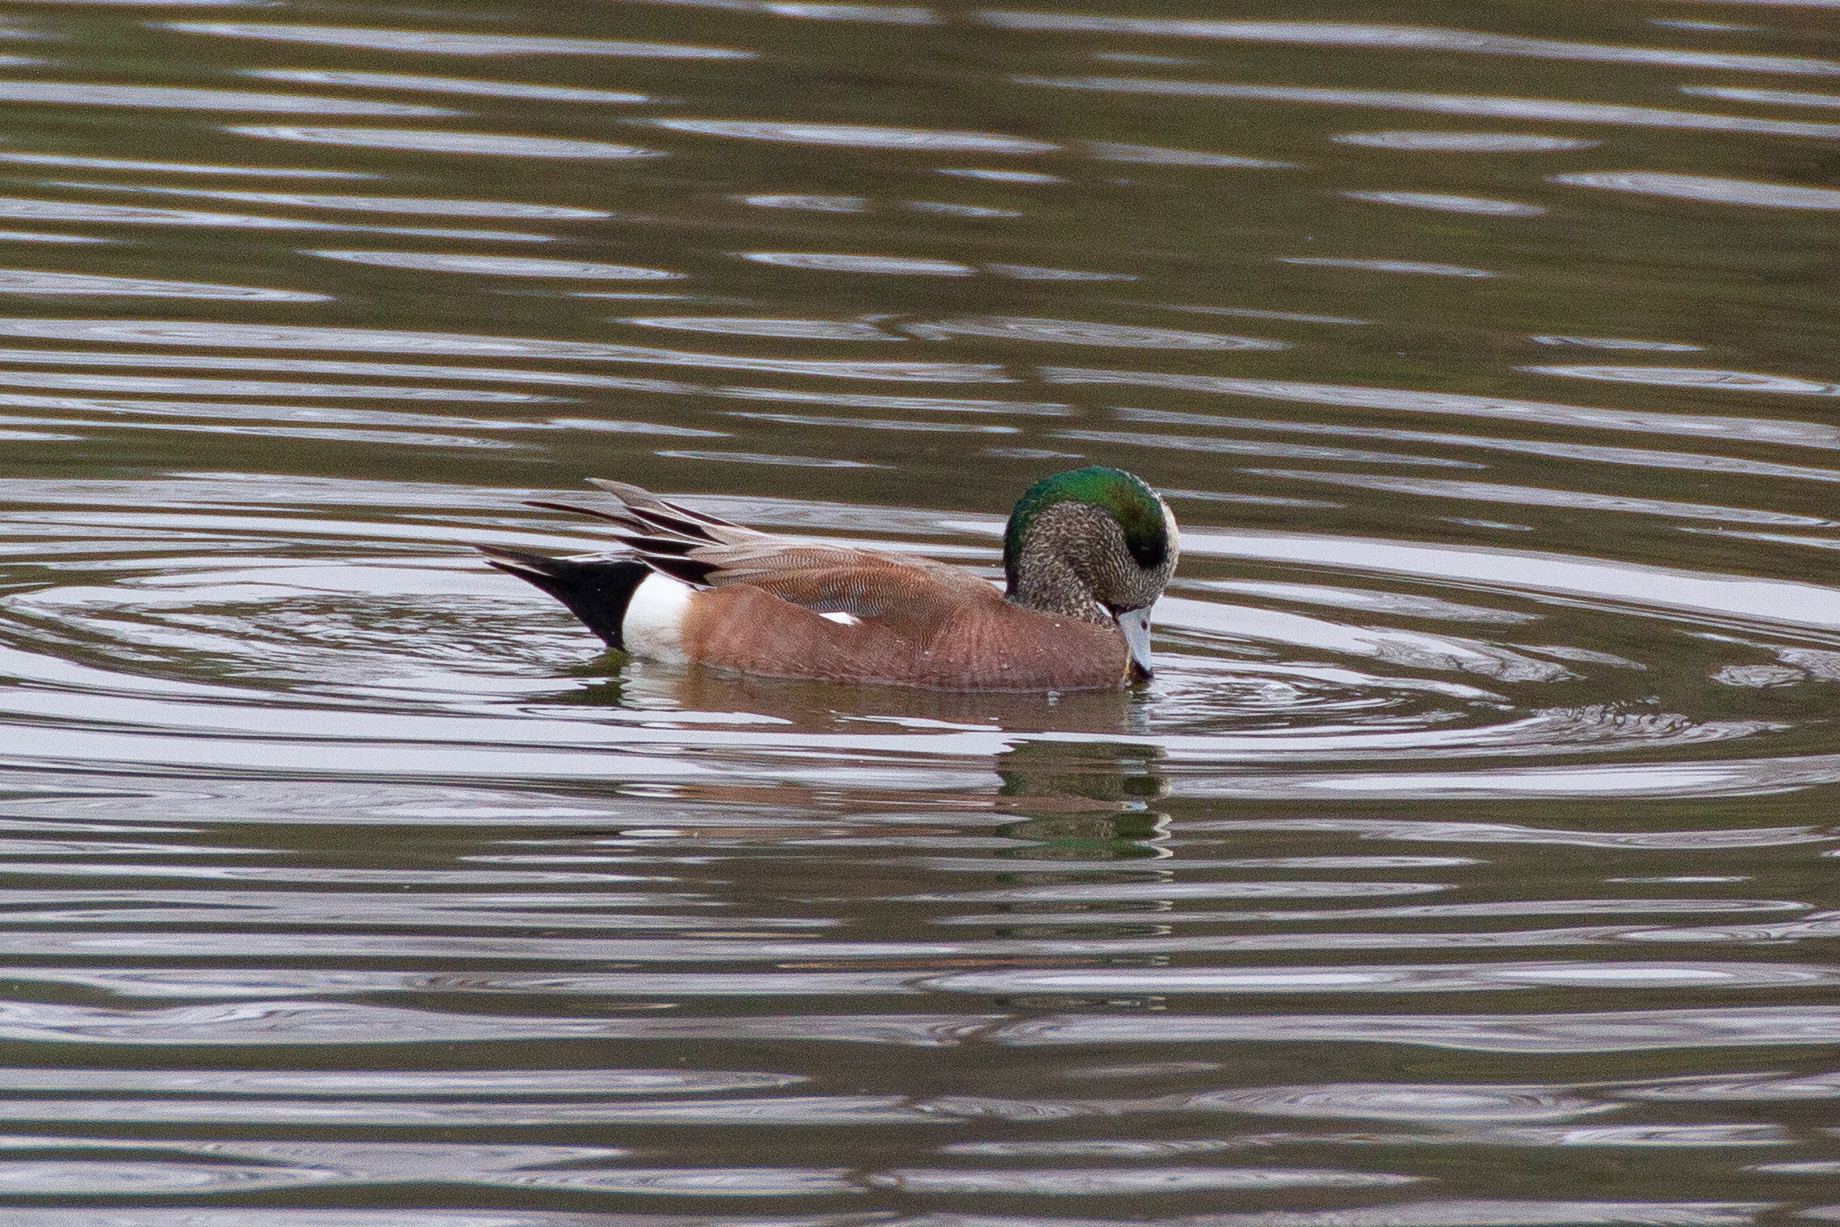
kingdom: Animalia
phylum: Chordata
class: Aves
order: Anseriformes
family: Anatidae
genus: Mareca
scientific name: Mareca americana
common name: American wigeon
